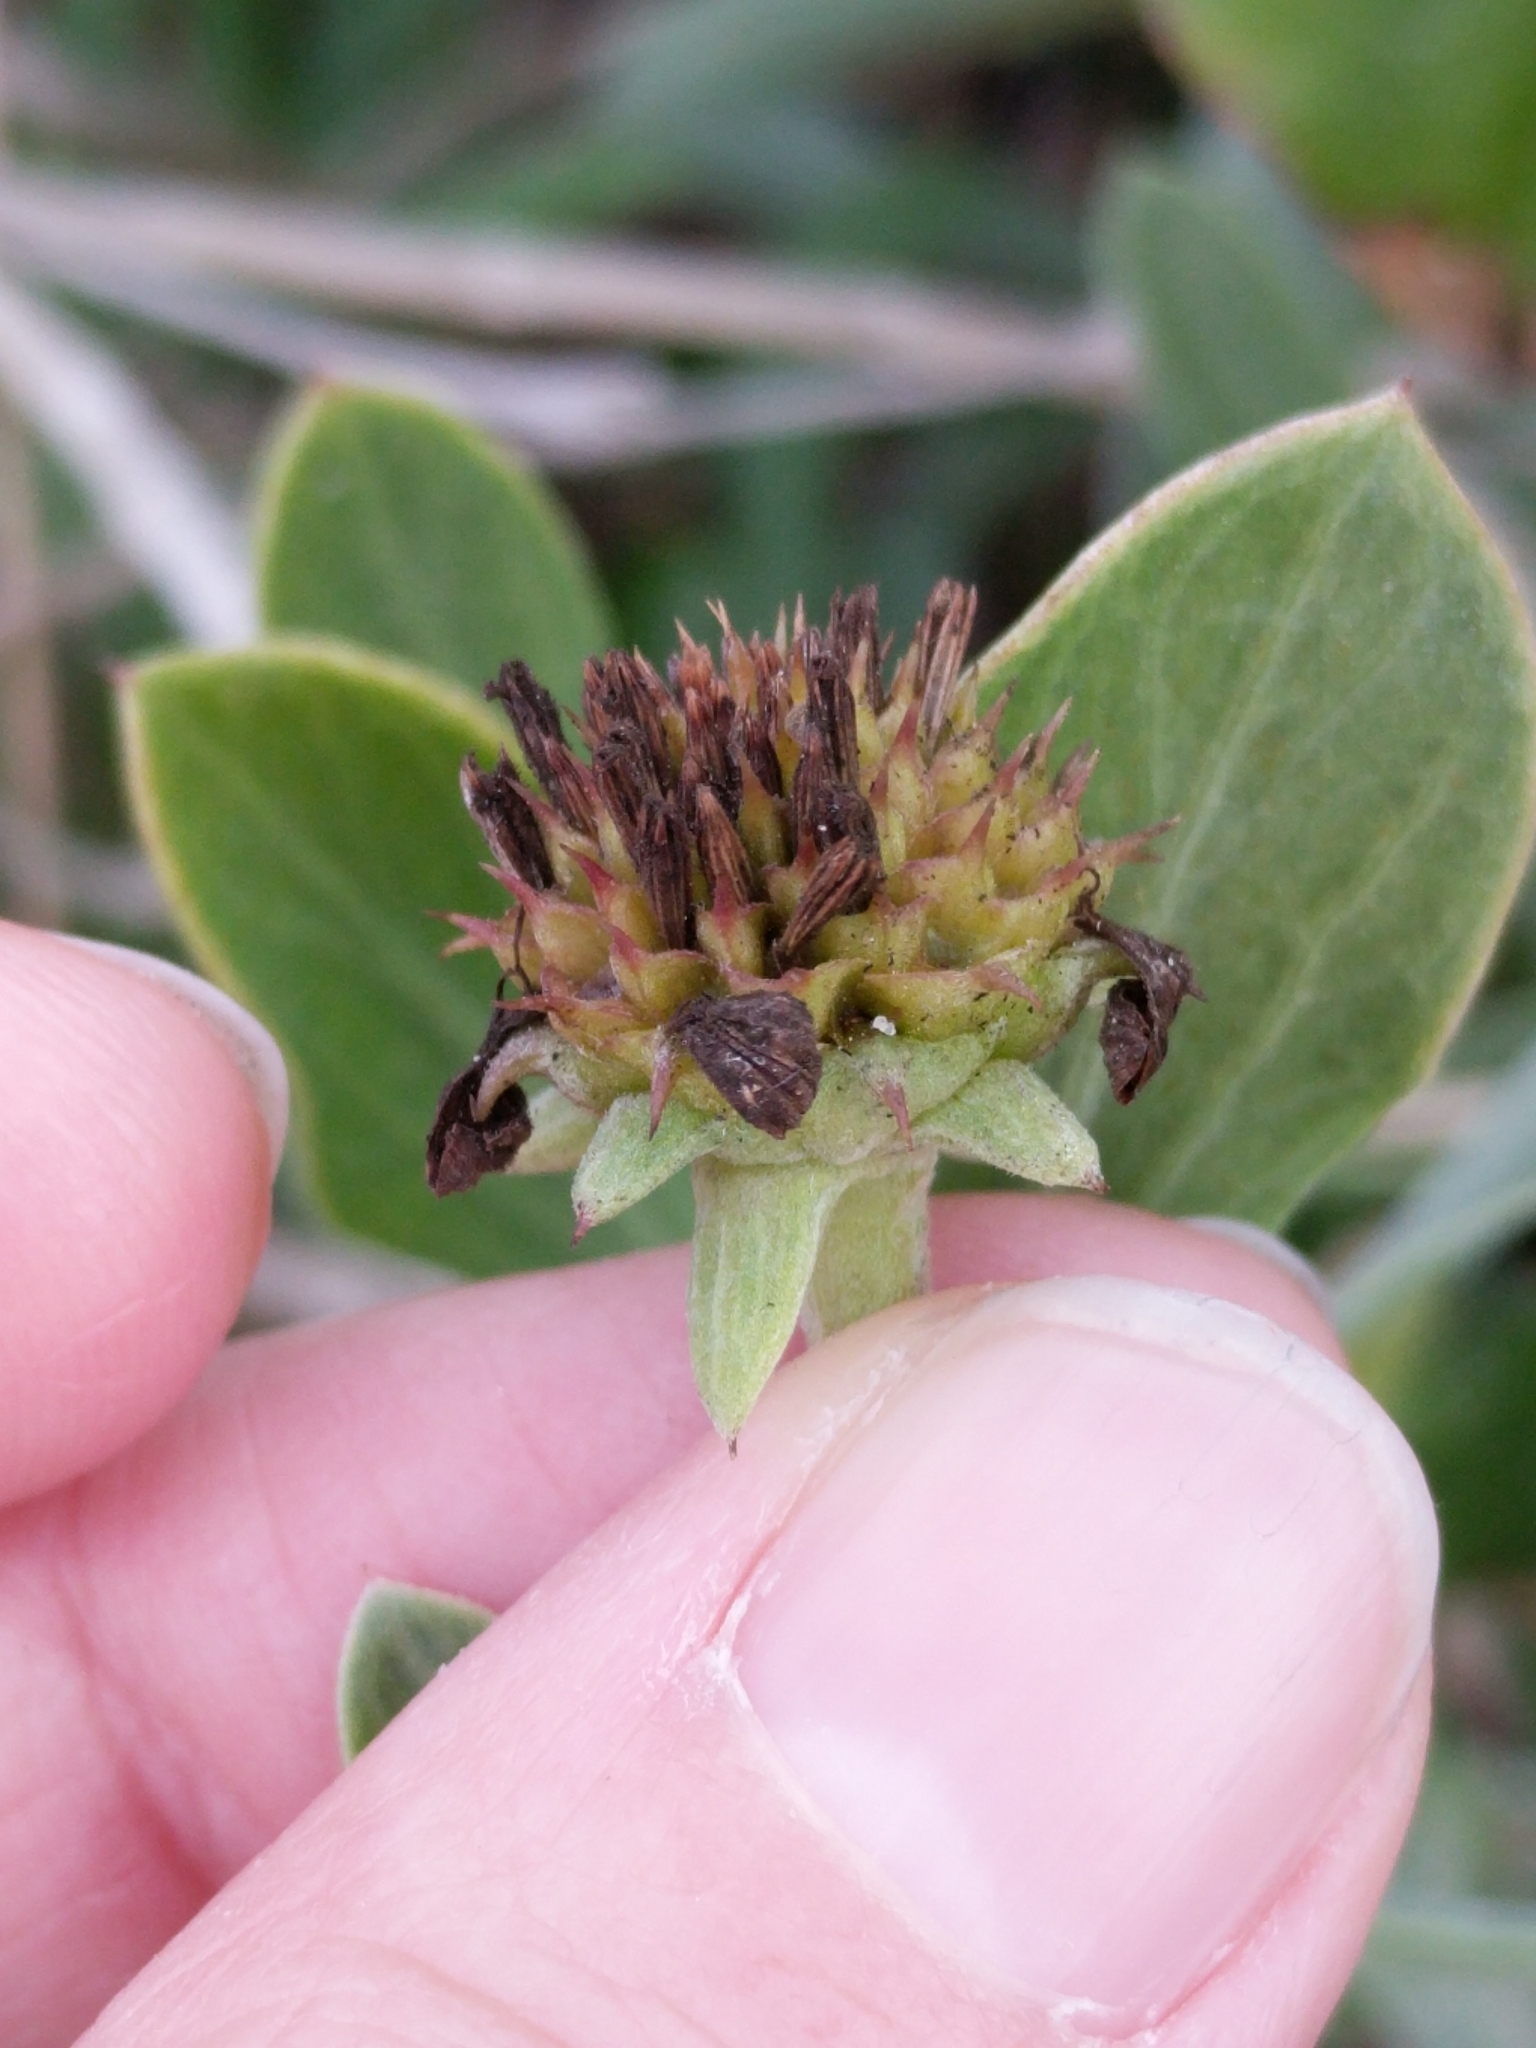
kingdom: Plantae
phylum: Tracheophyta
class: Magnoliopsida
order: Asterales
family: Asteraceae
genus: Borrichia
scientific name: Borrichia frutescens
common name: Sea oxeye
